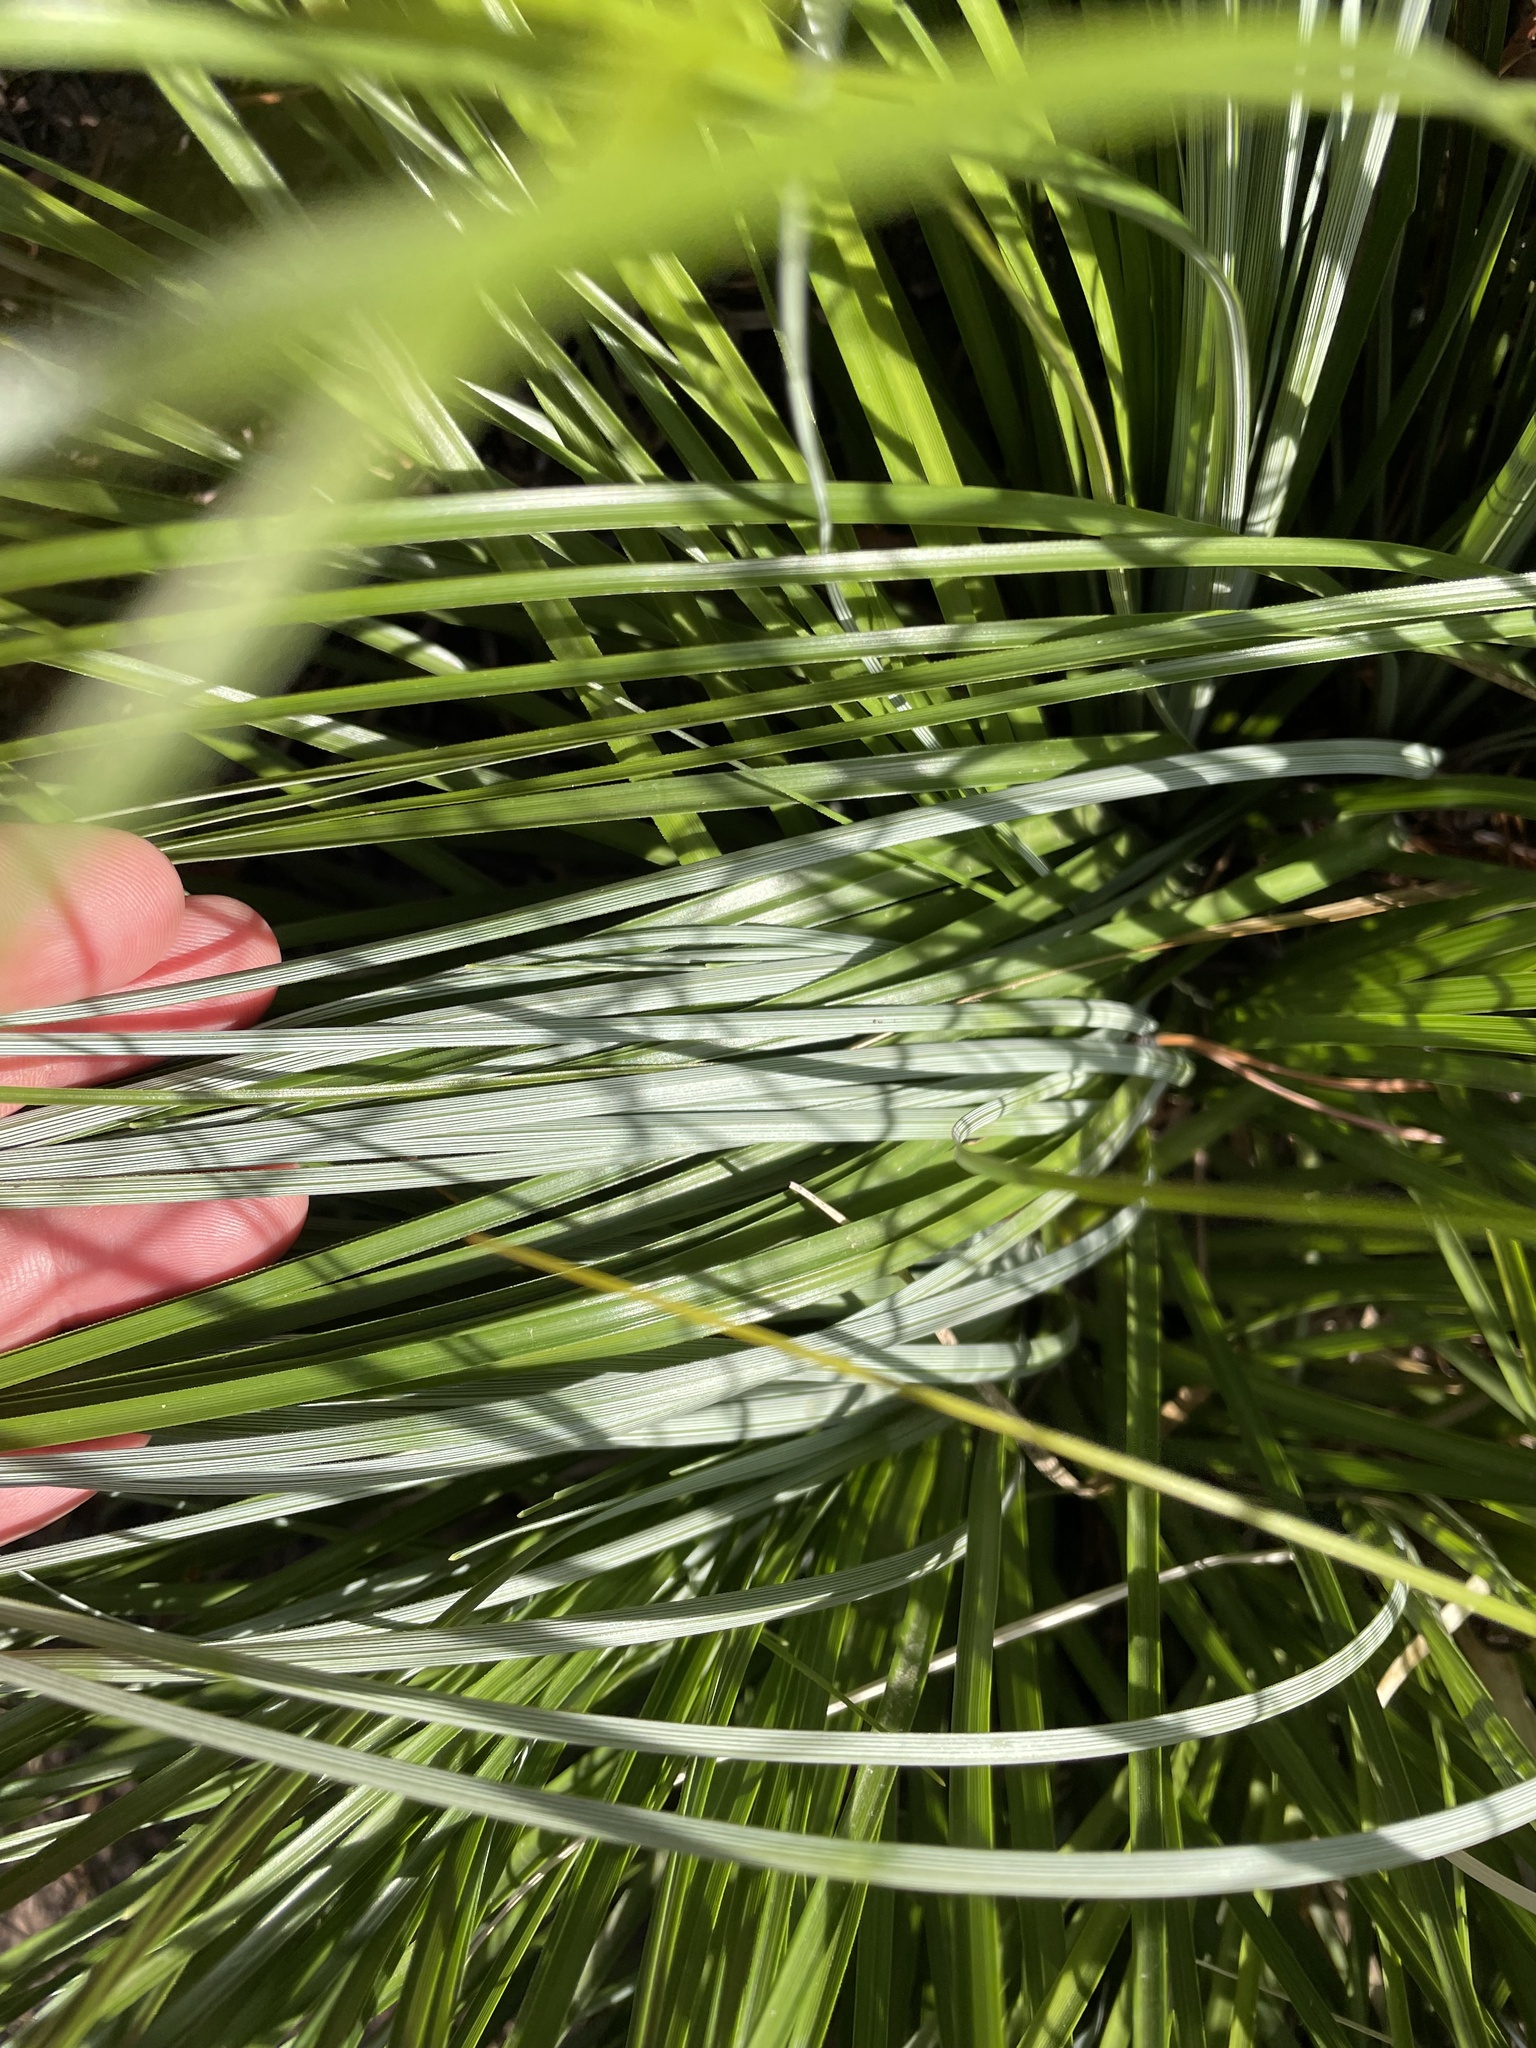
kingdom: Plantae
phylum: Tracheophyta
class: Liliopsida
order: Liliales
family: Melanthiaceae
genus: Xerophyllum
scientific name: Xerophyllum tenax
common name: Bear-grass
